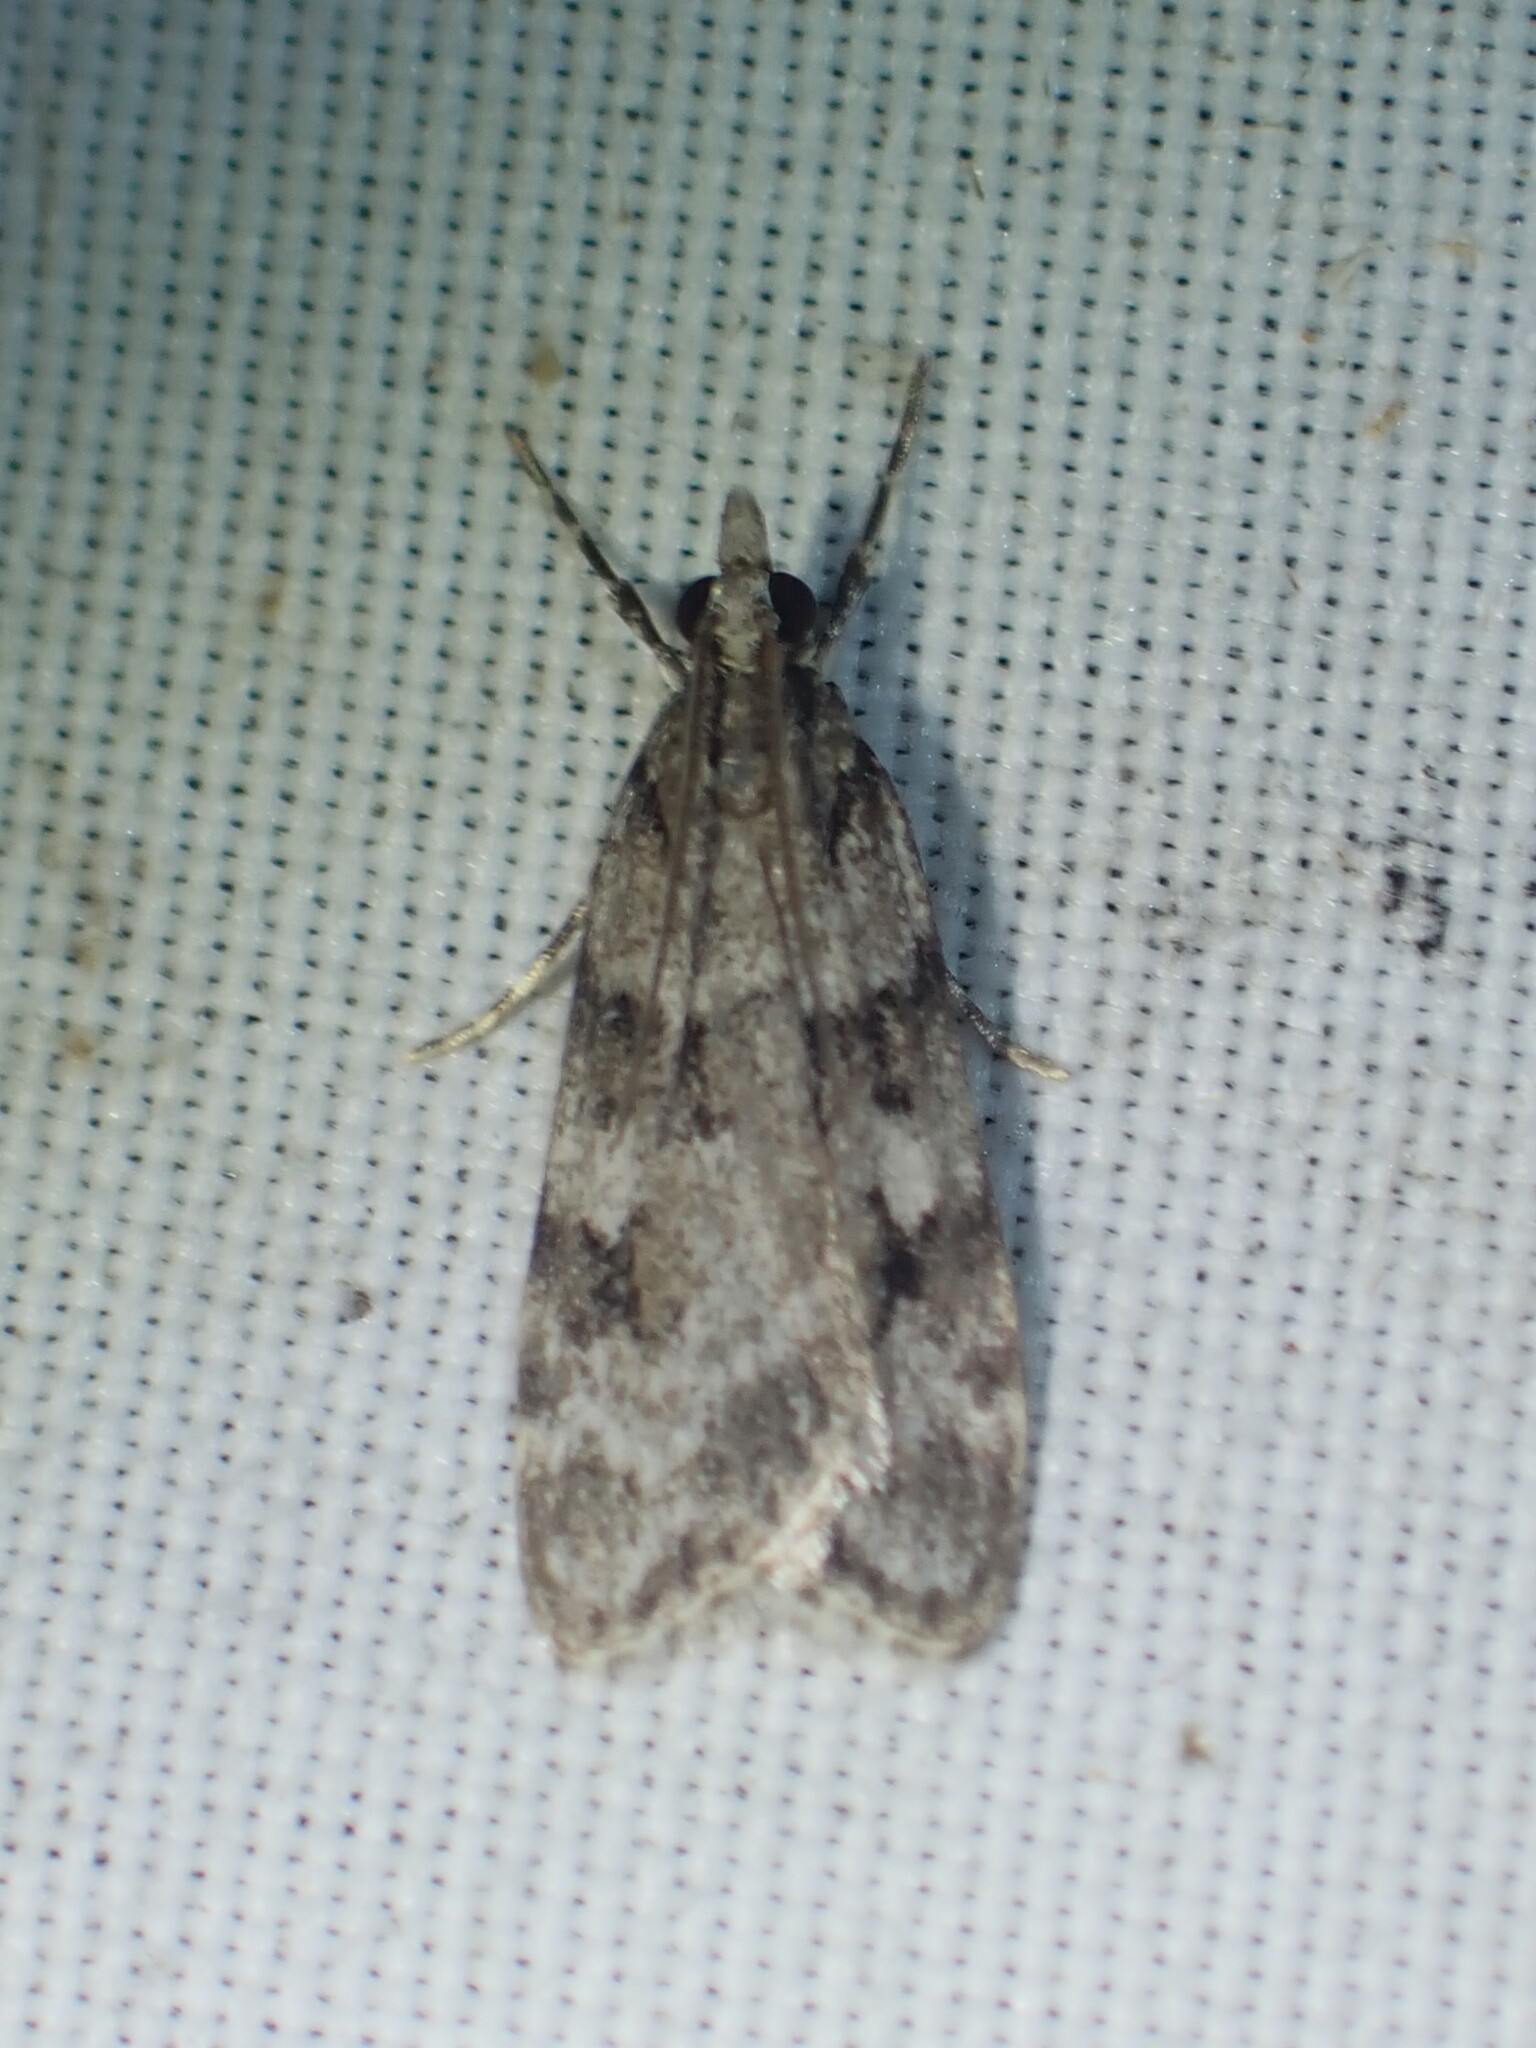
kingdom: Animalia
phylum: Arthropoda
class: Insecta
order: Lepidoptera
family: Crambidae
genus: Scoparia
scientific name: Scoparia biplagialis
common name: Double-striped scoparia moth
